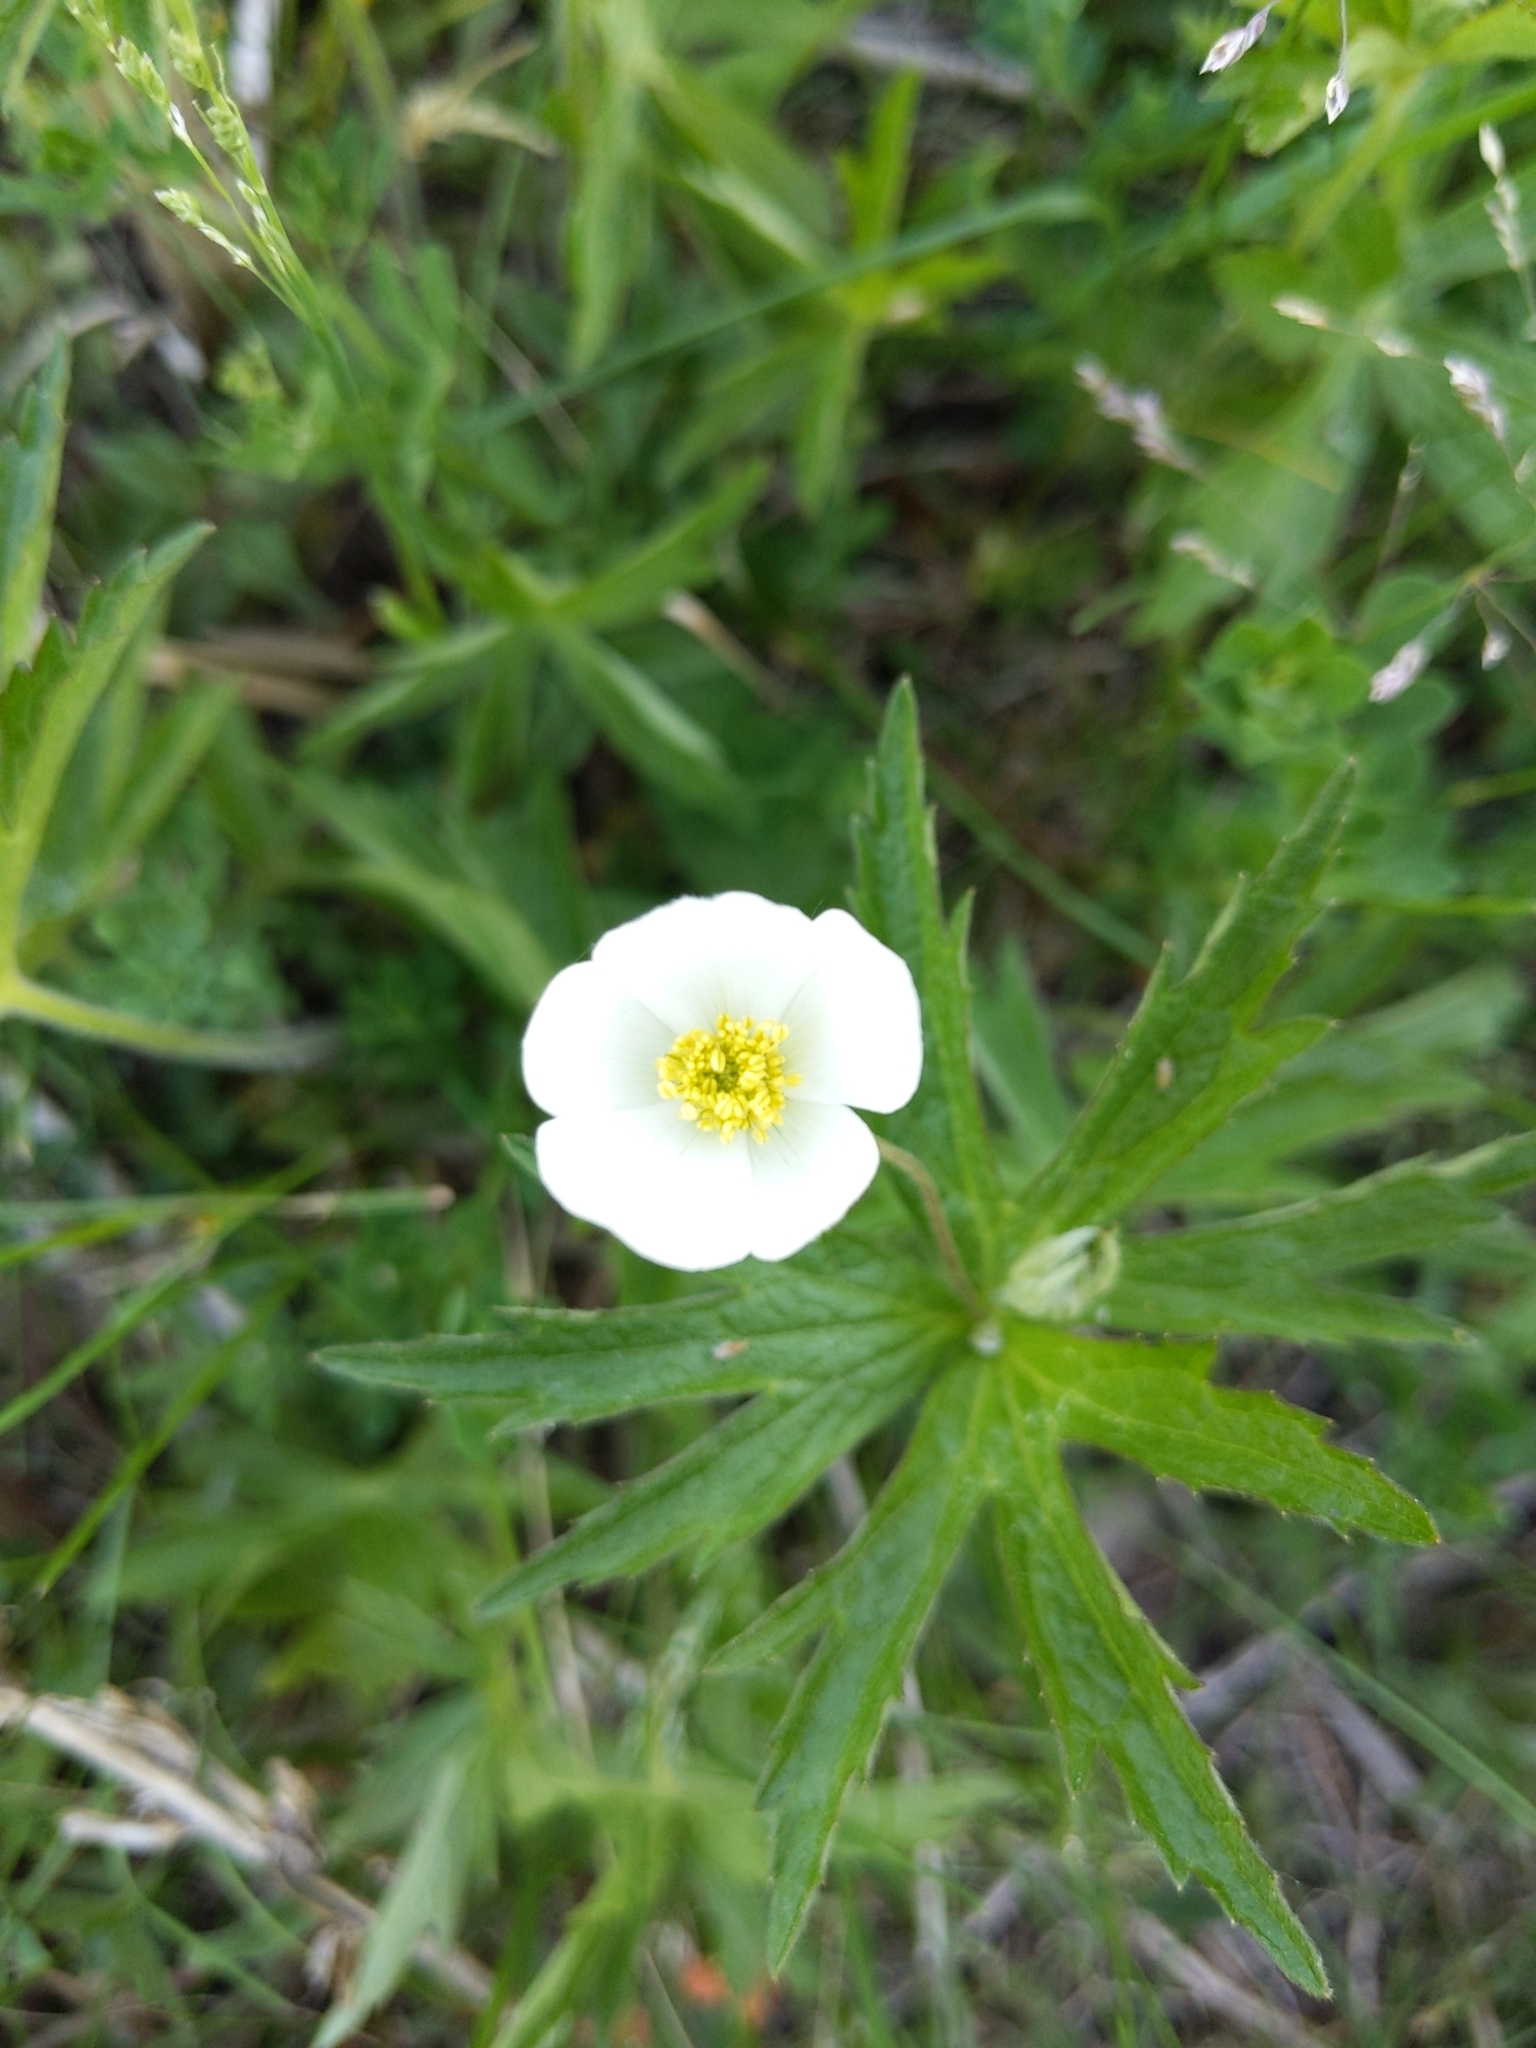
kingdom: Plantae
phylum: Tracheophyta
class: Magnoliopsida
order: Ranunculales
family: Ranunculaceae
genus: Anemonastrum
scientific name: Anemonastrum canadense
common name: Canada anemone
